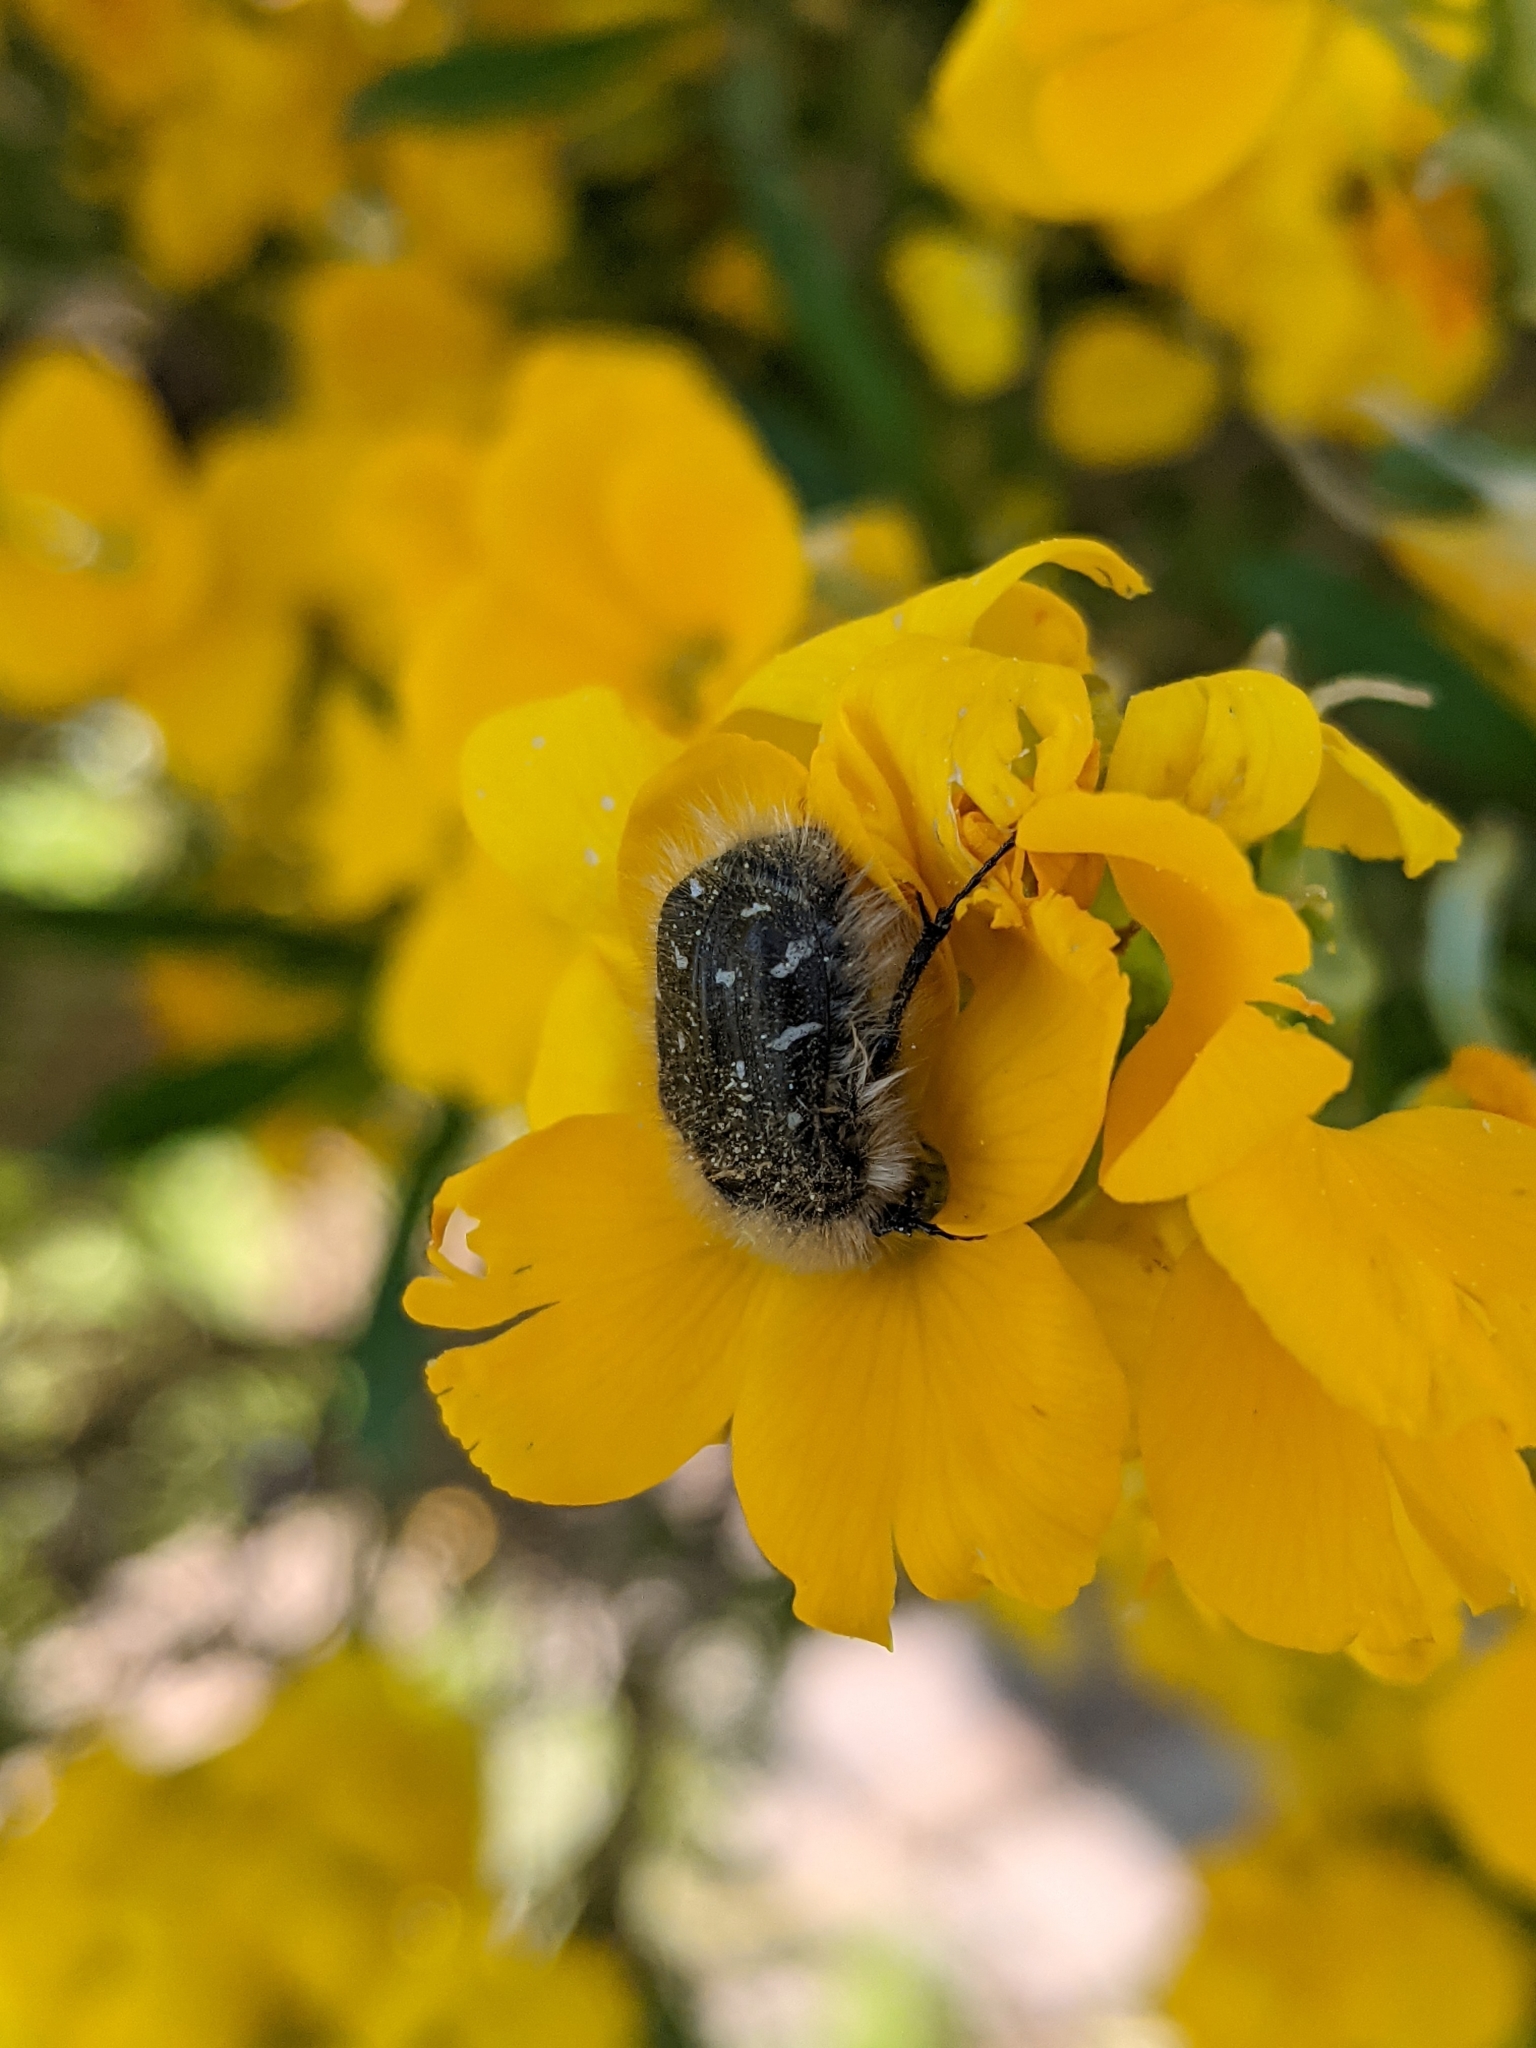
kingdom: Animalia
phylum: Arthropoda
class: Insecta
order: Coleoptera
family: Scarabaeidae
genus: Tropinota
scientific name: Tropinota hirta
